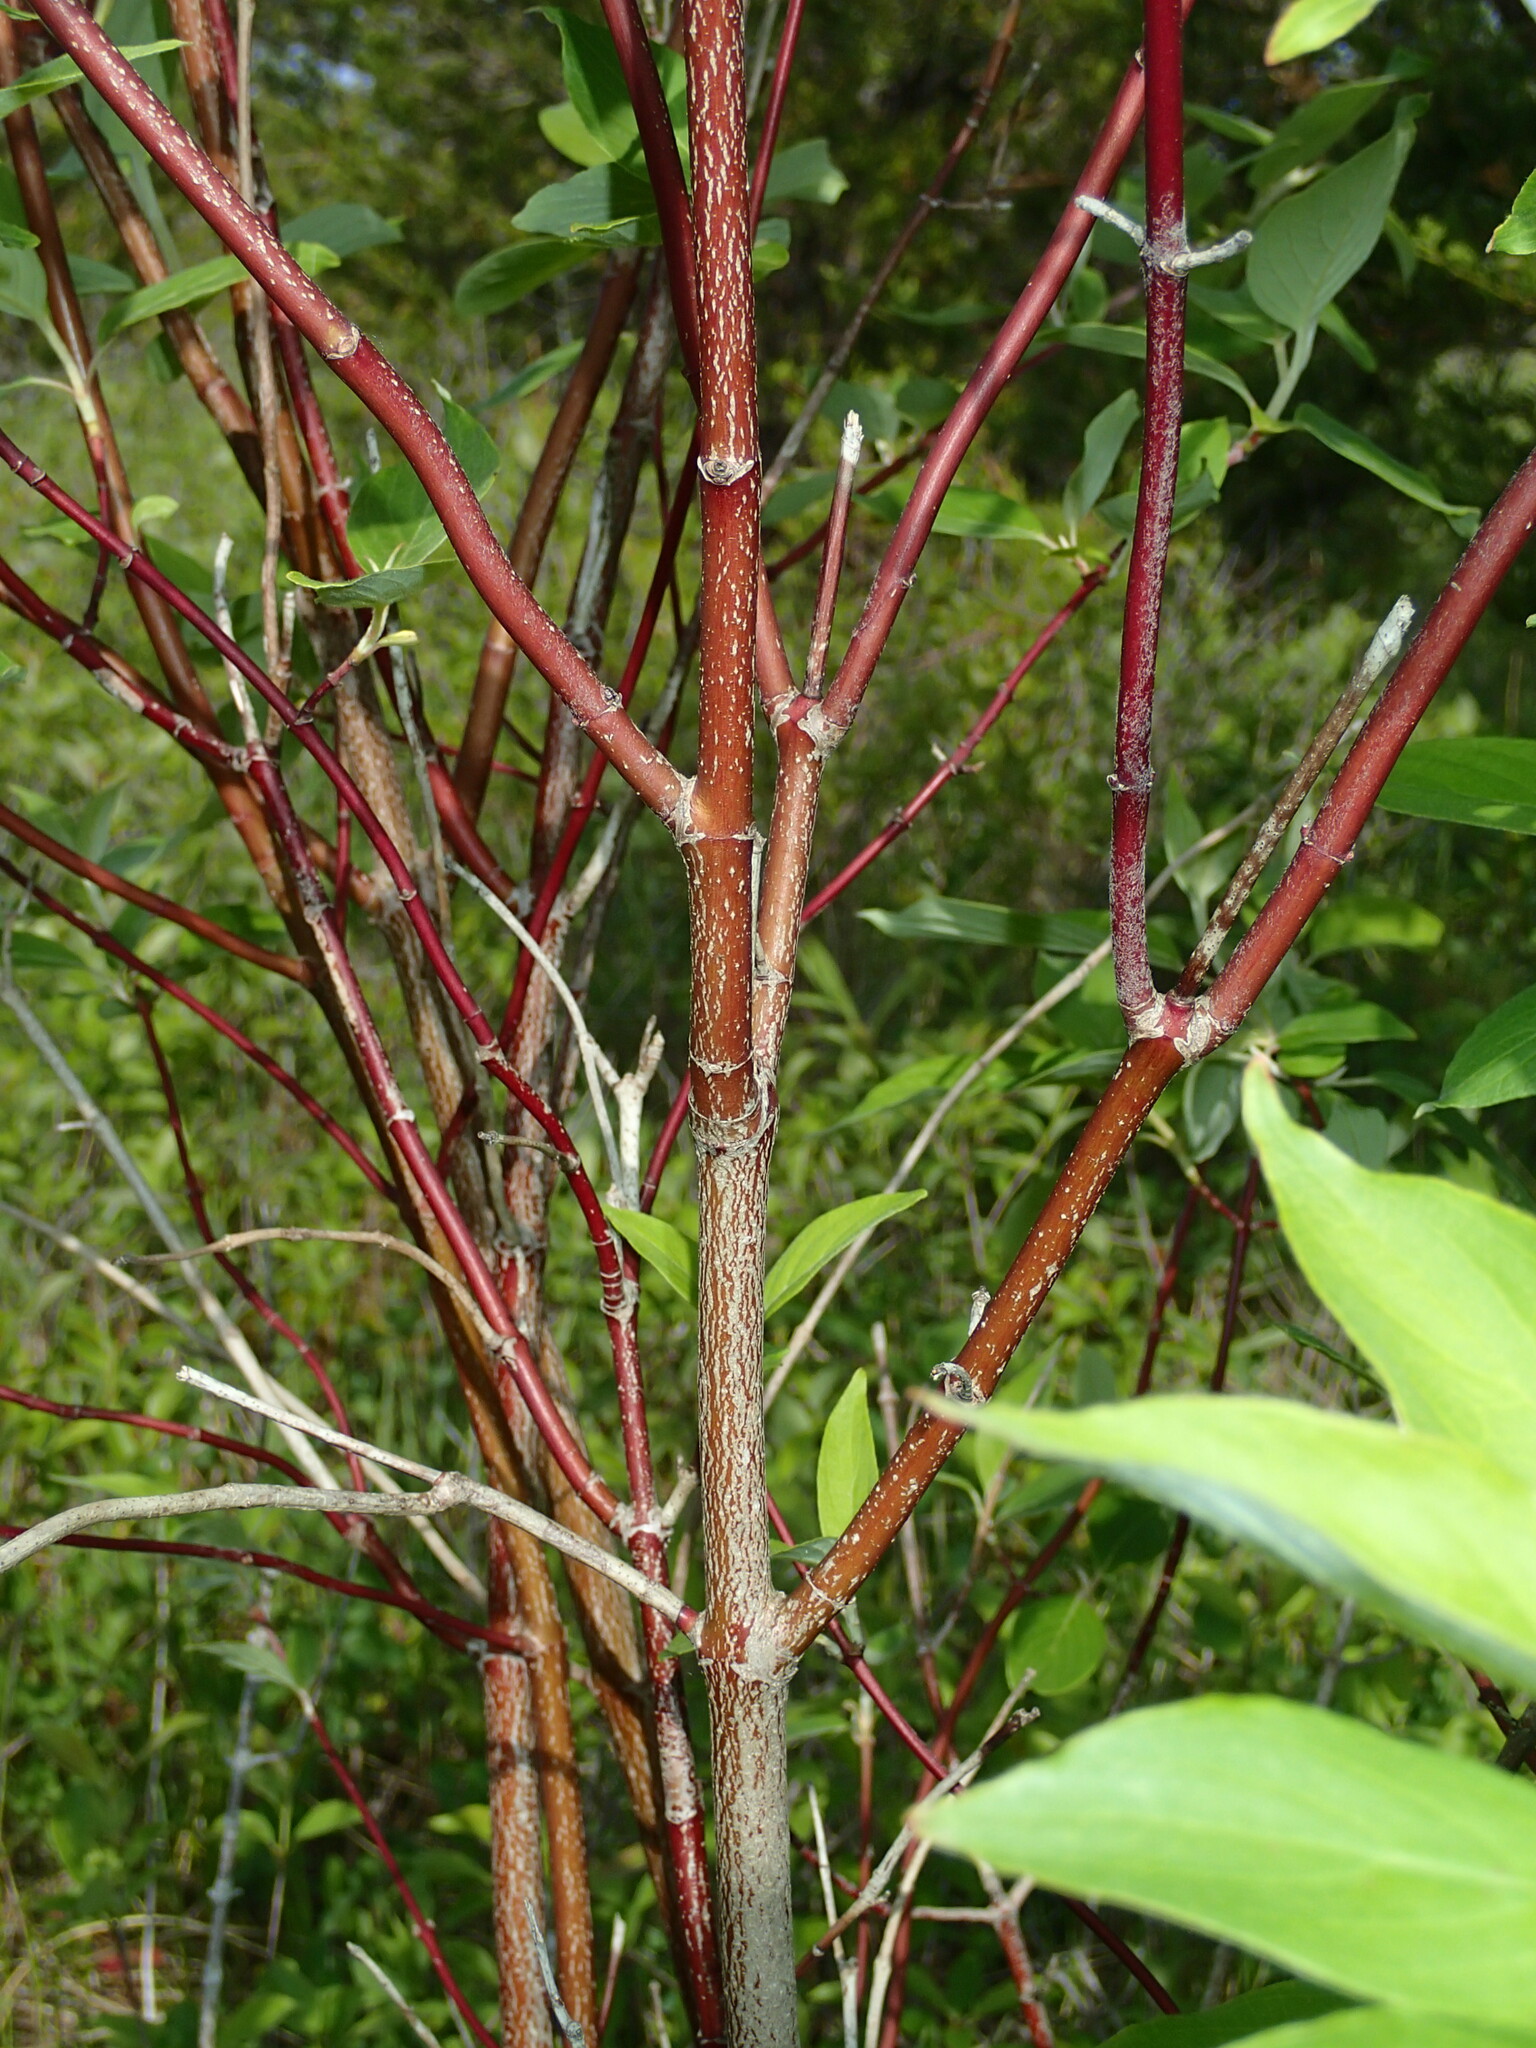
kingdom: Plantae
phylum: Tracheophyta
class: Magnoliopsida
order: Cornales
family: Cornaceae
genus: Cornus
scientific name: Cornus obliqua
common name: Pale dogwood
